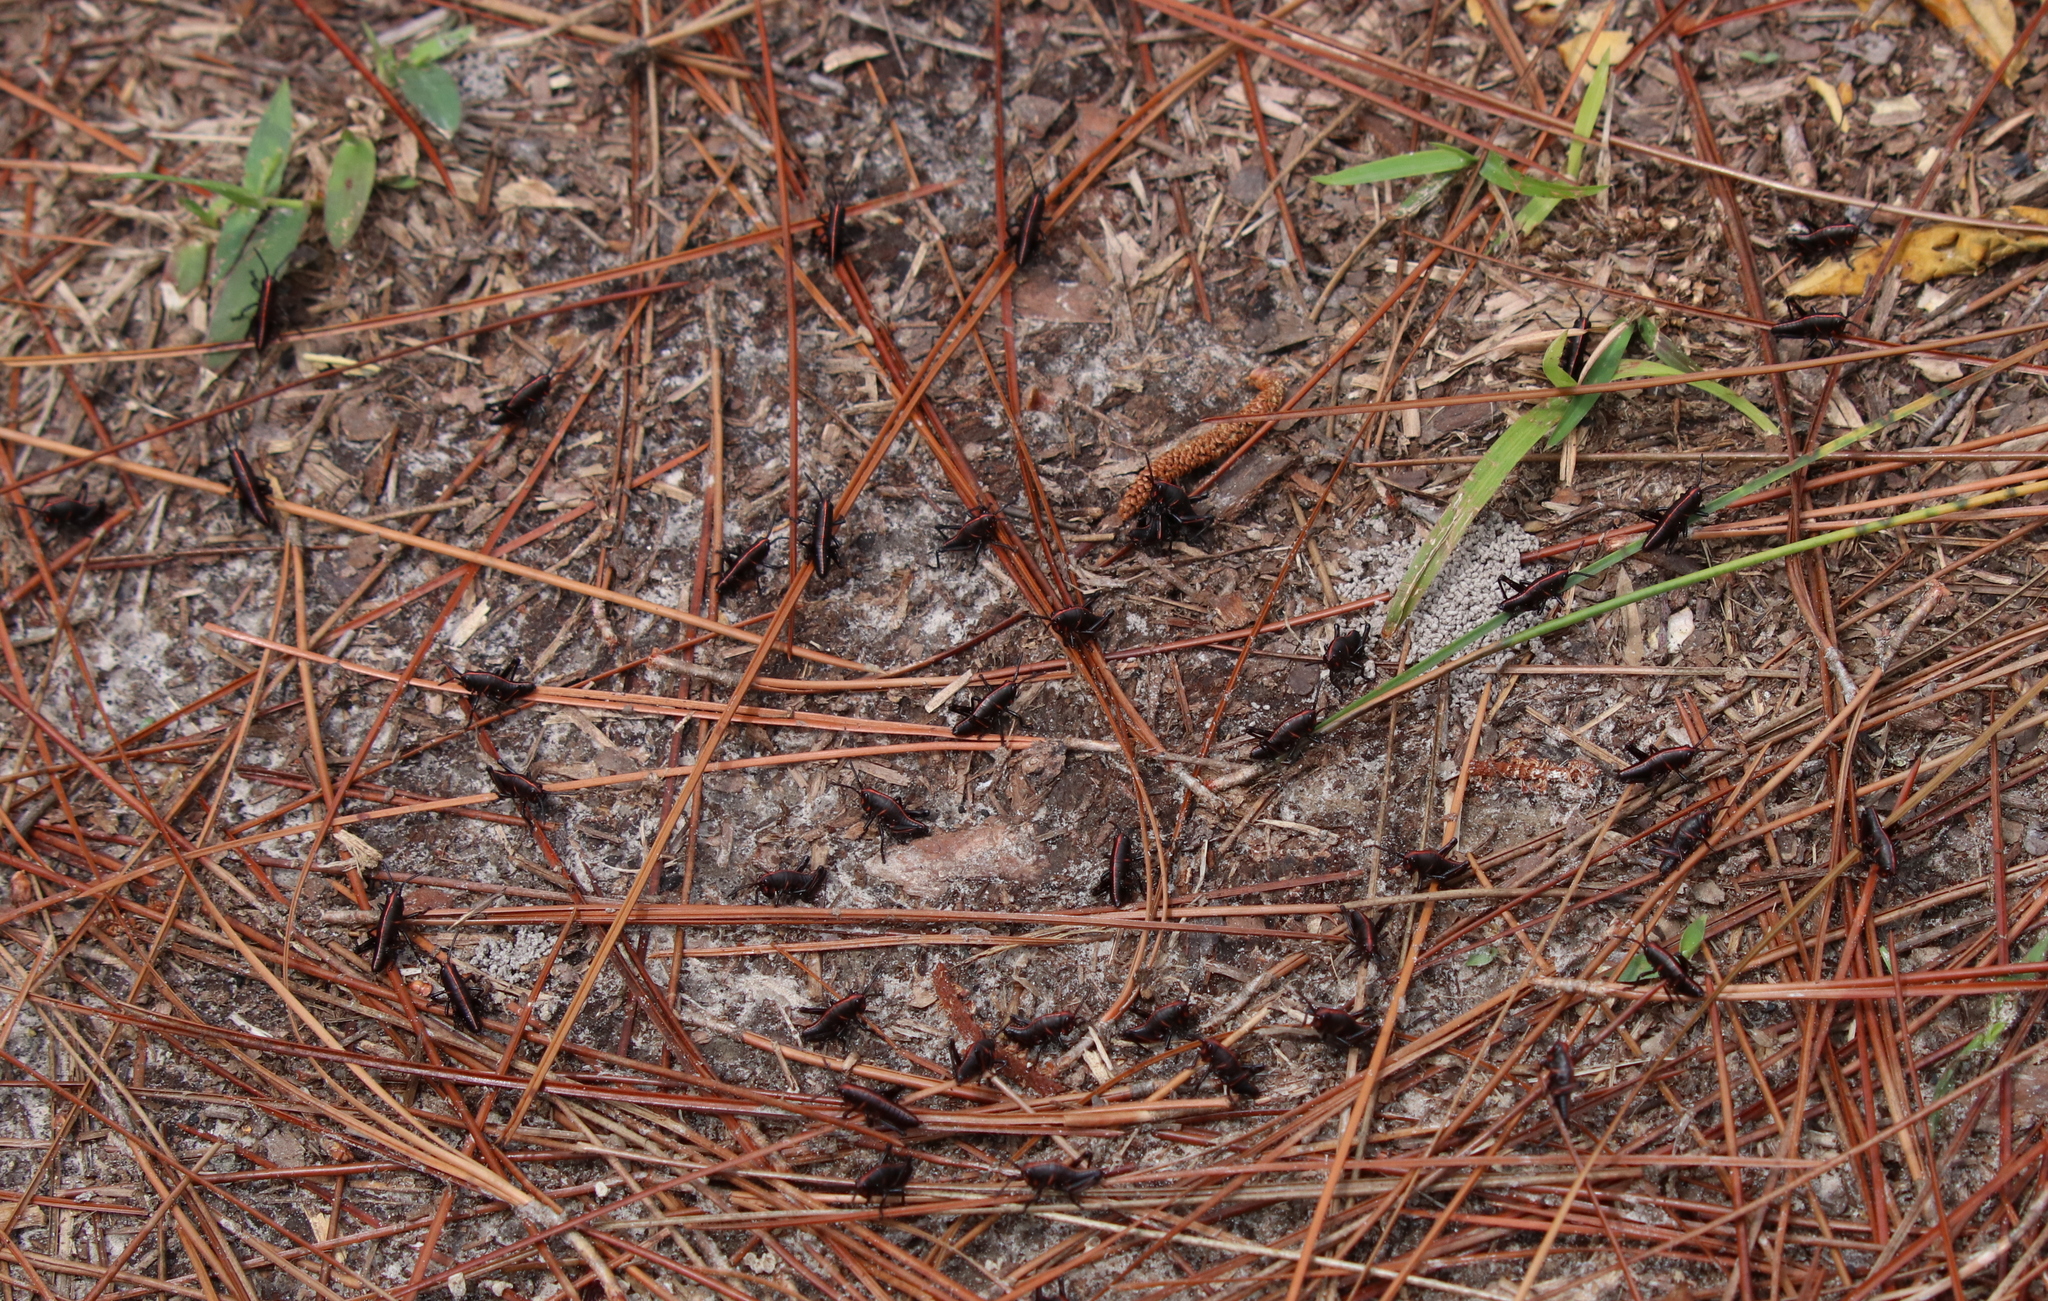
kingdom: Animalia
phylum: Arthropoda
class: Insecta
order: Orthoptera
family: Romaleidae
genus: Romalea
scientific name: Romalea microptera
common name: Eastern lubber grasshopper
